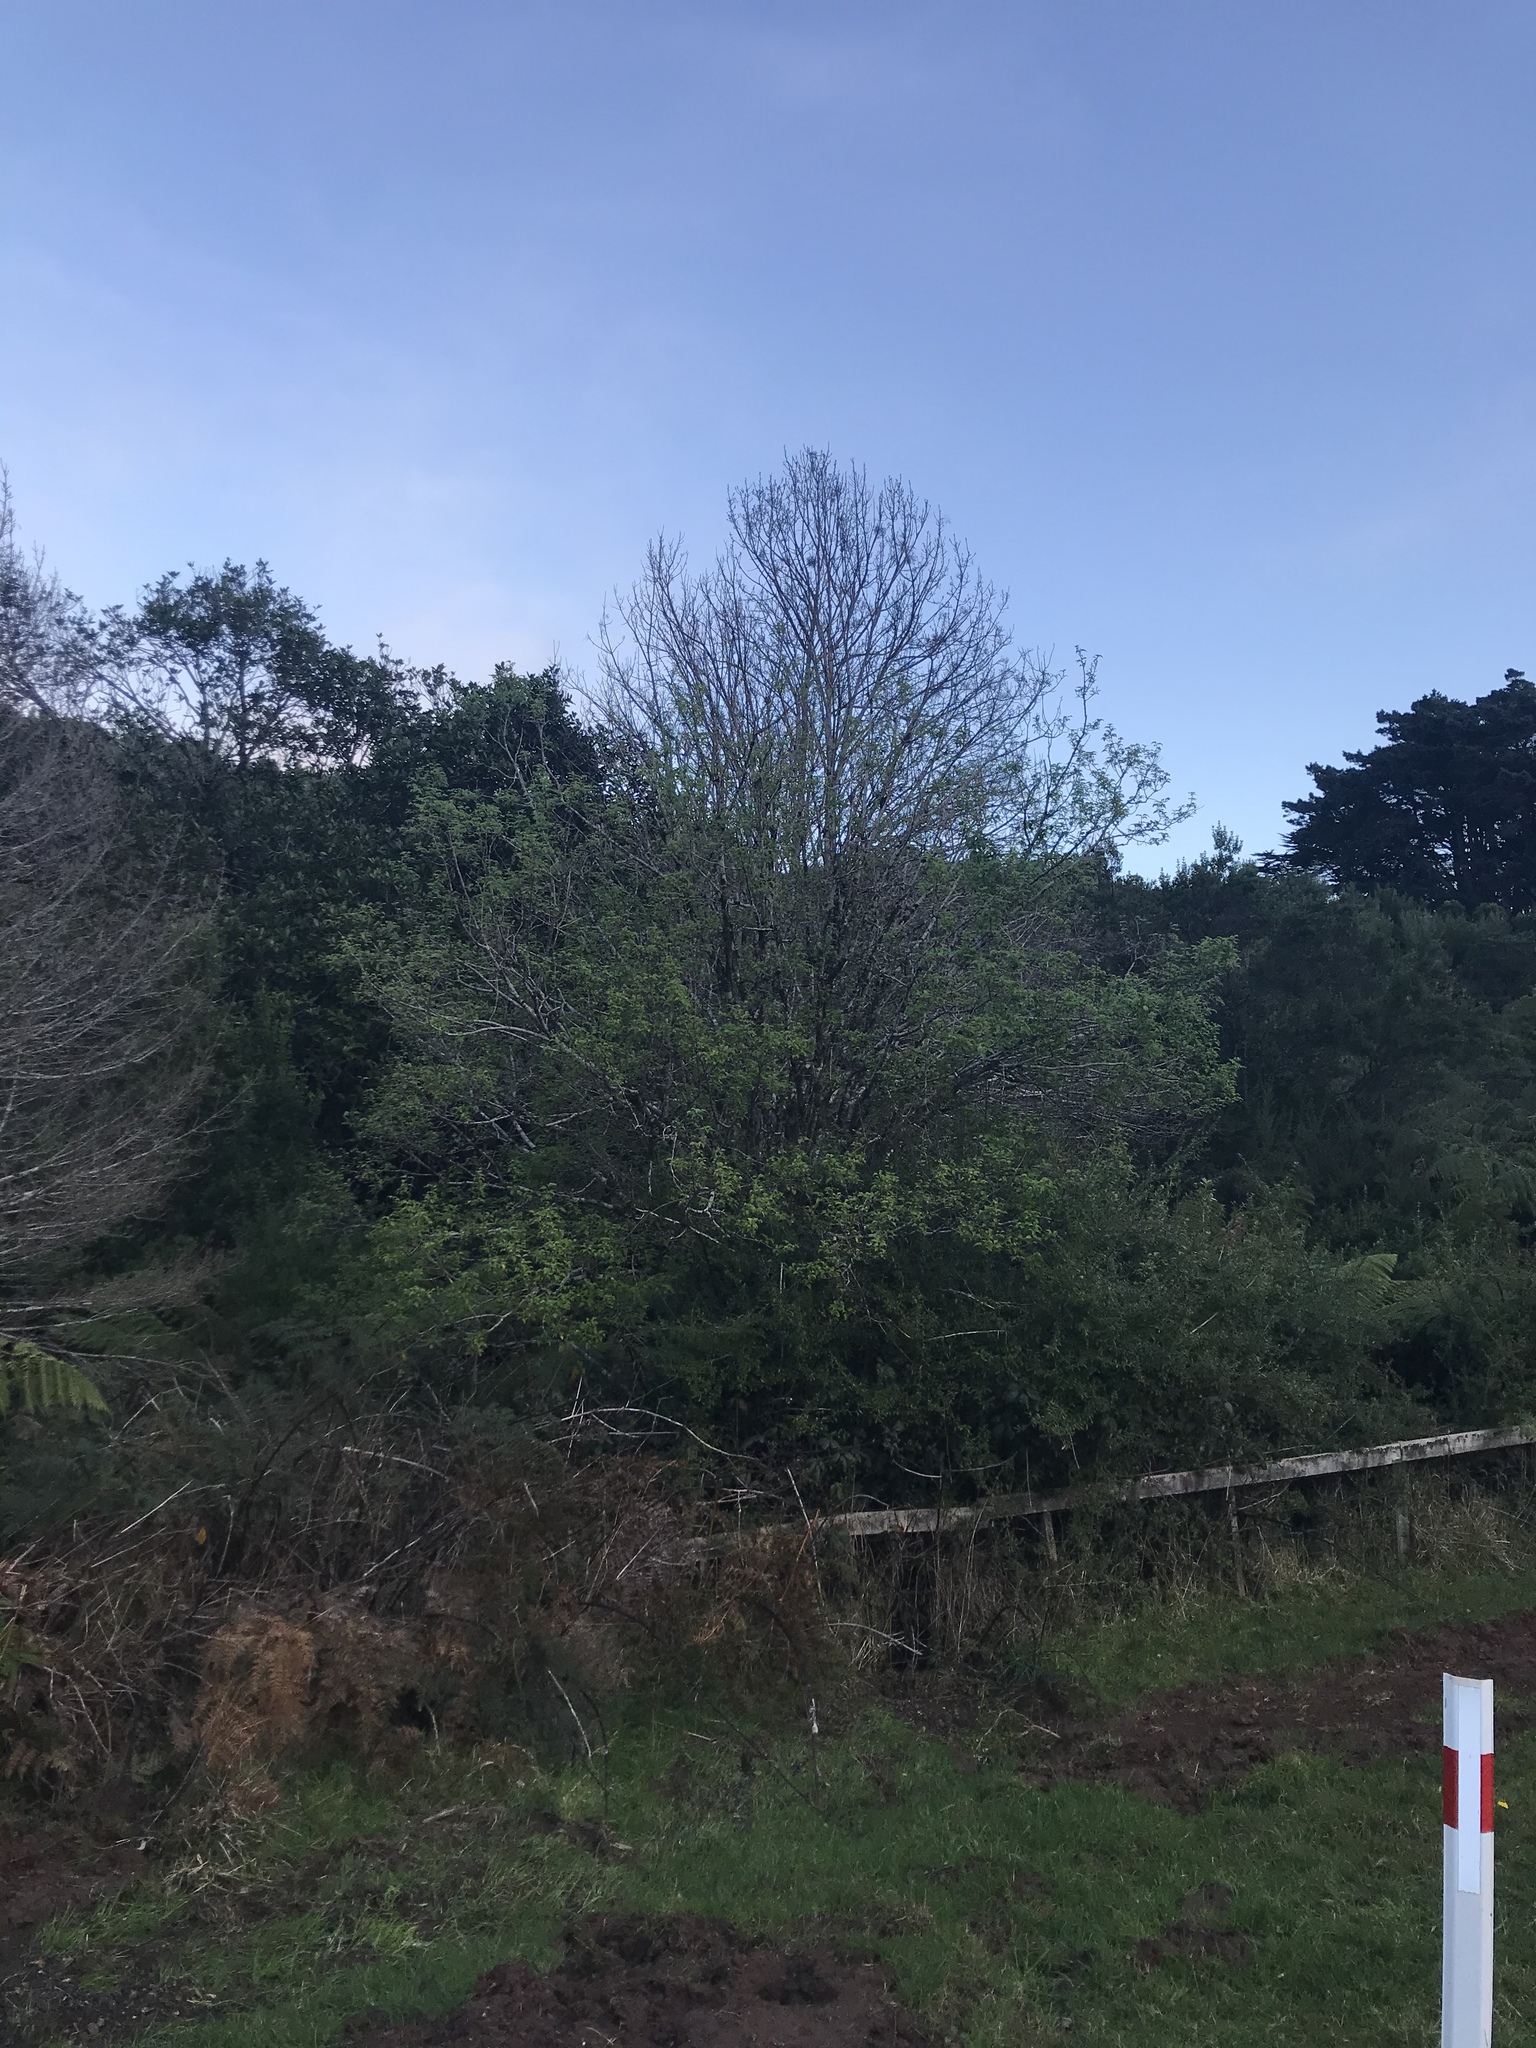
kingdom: Plantae
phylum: Tracheophyta
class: Magnoliopsida
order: Malvales
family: Malvaceae
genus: Plagianthus
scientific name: Plagianthus regius
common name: Manatu
